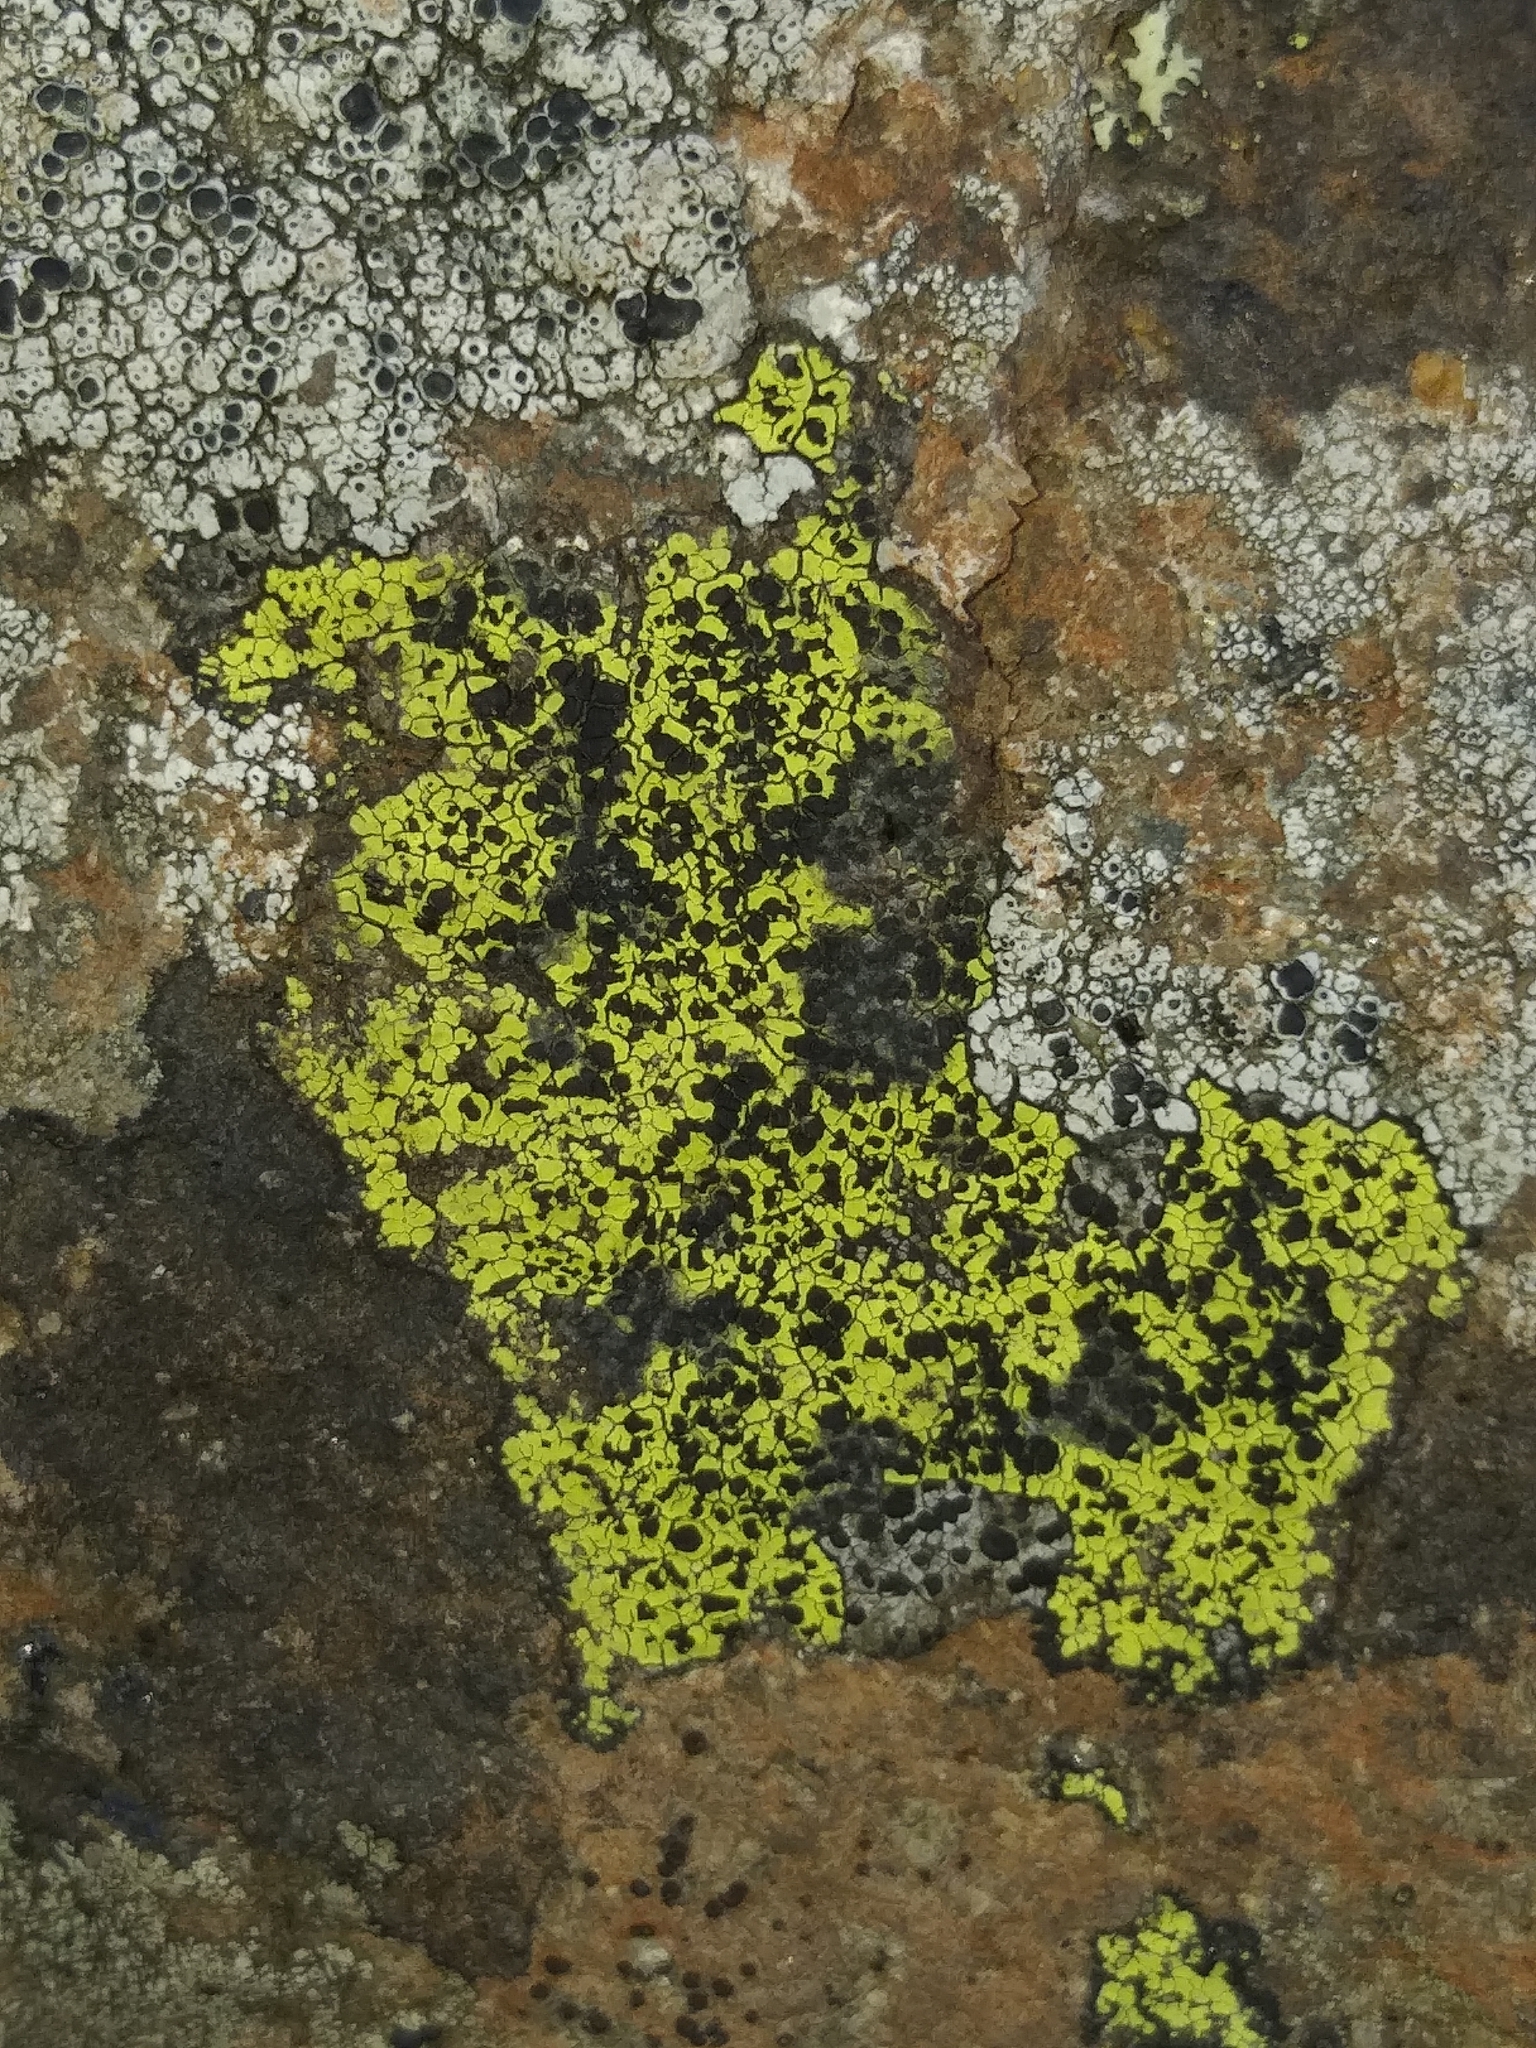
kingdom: Fungi
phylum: Ascomycota
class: Lecanoromycetes
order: Rhizocarpales
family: Rhizocarpaceae
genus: Rhizocarpon
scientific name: Rhizocarpon geographicum
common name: Yellow map lichen
